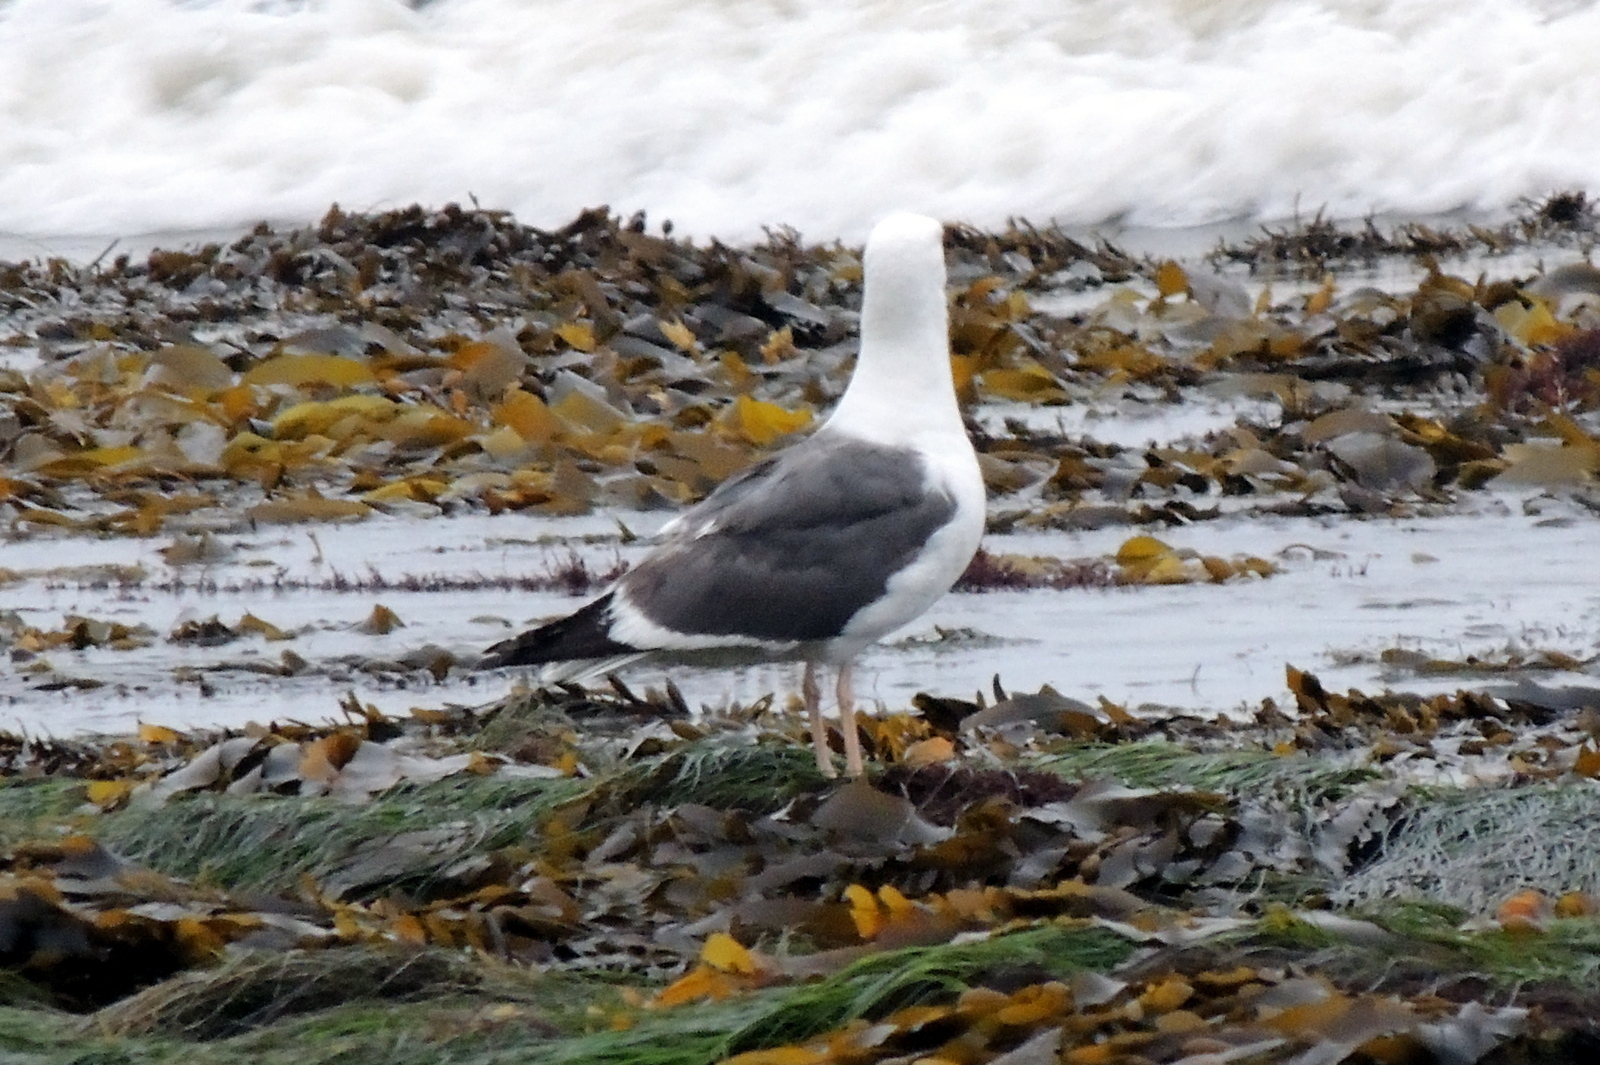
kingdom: Animalia
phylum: Chordata
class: Aves
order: Charadriiformes
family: Laridae
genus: Larus
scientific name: Larus occidentalis
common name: Western gull
